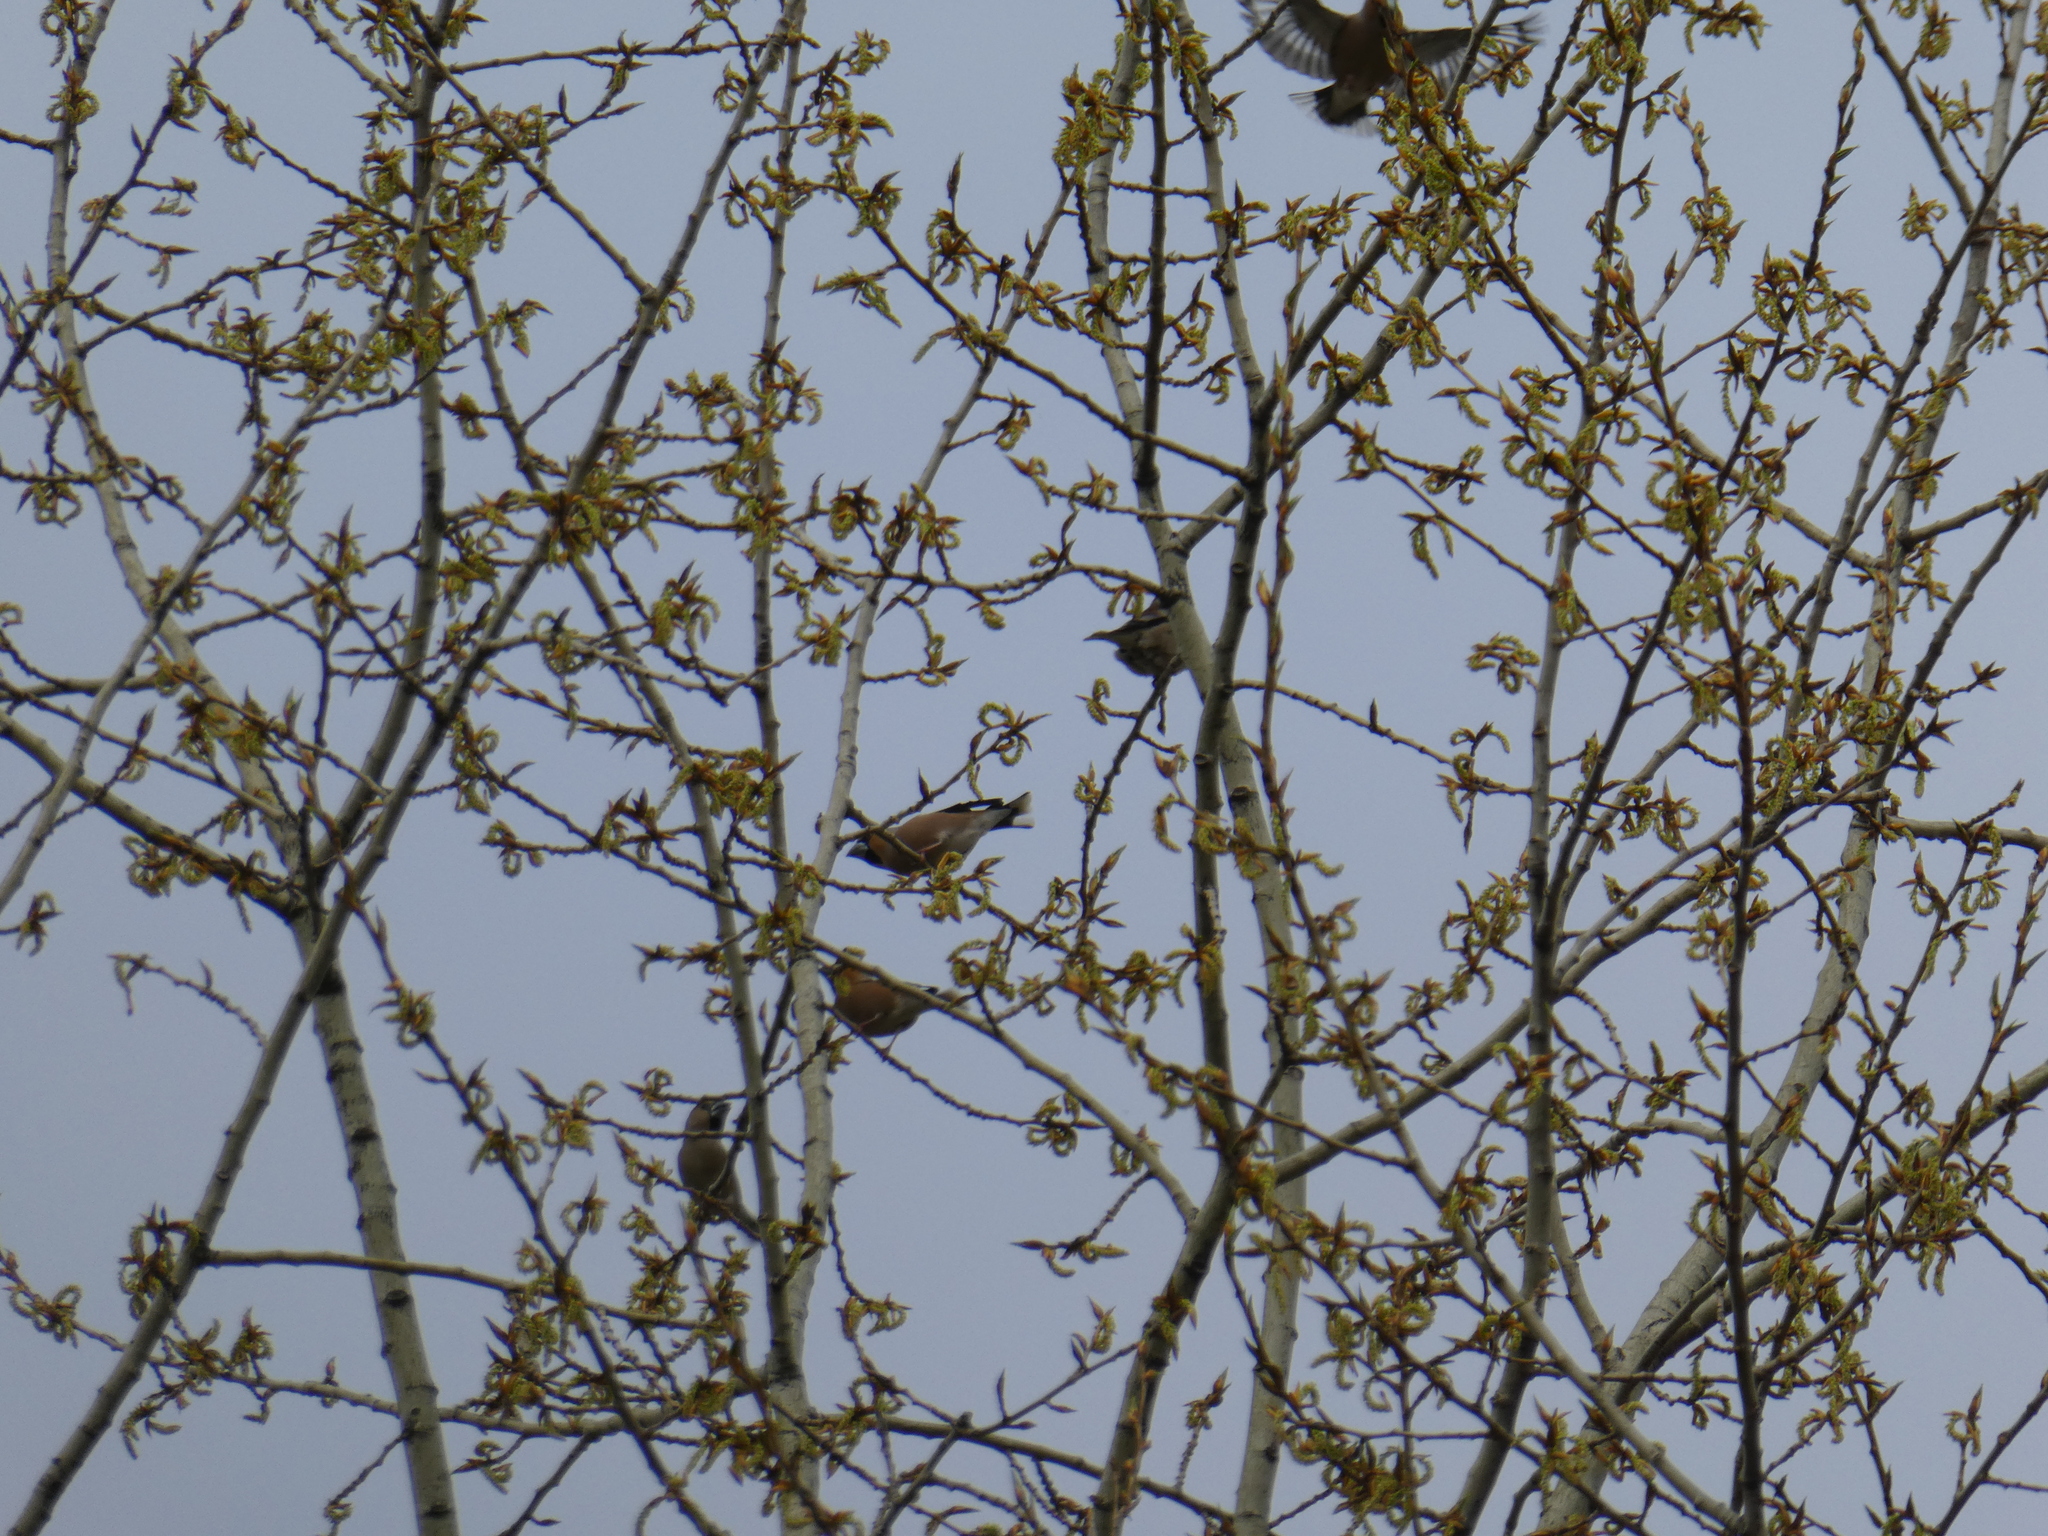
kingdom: Animalia
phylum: Chordata
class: Aves
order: Passeriformes
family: Fringillidae
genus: Coccothraustes
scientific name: Coccothraustes coccothraustes
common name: Hawfinch
